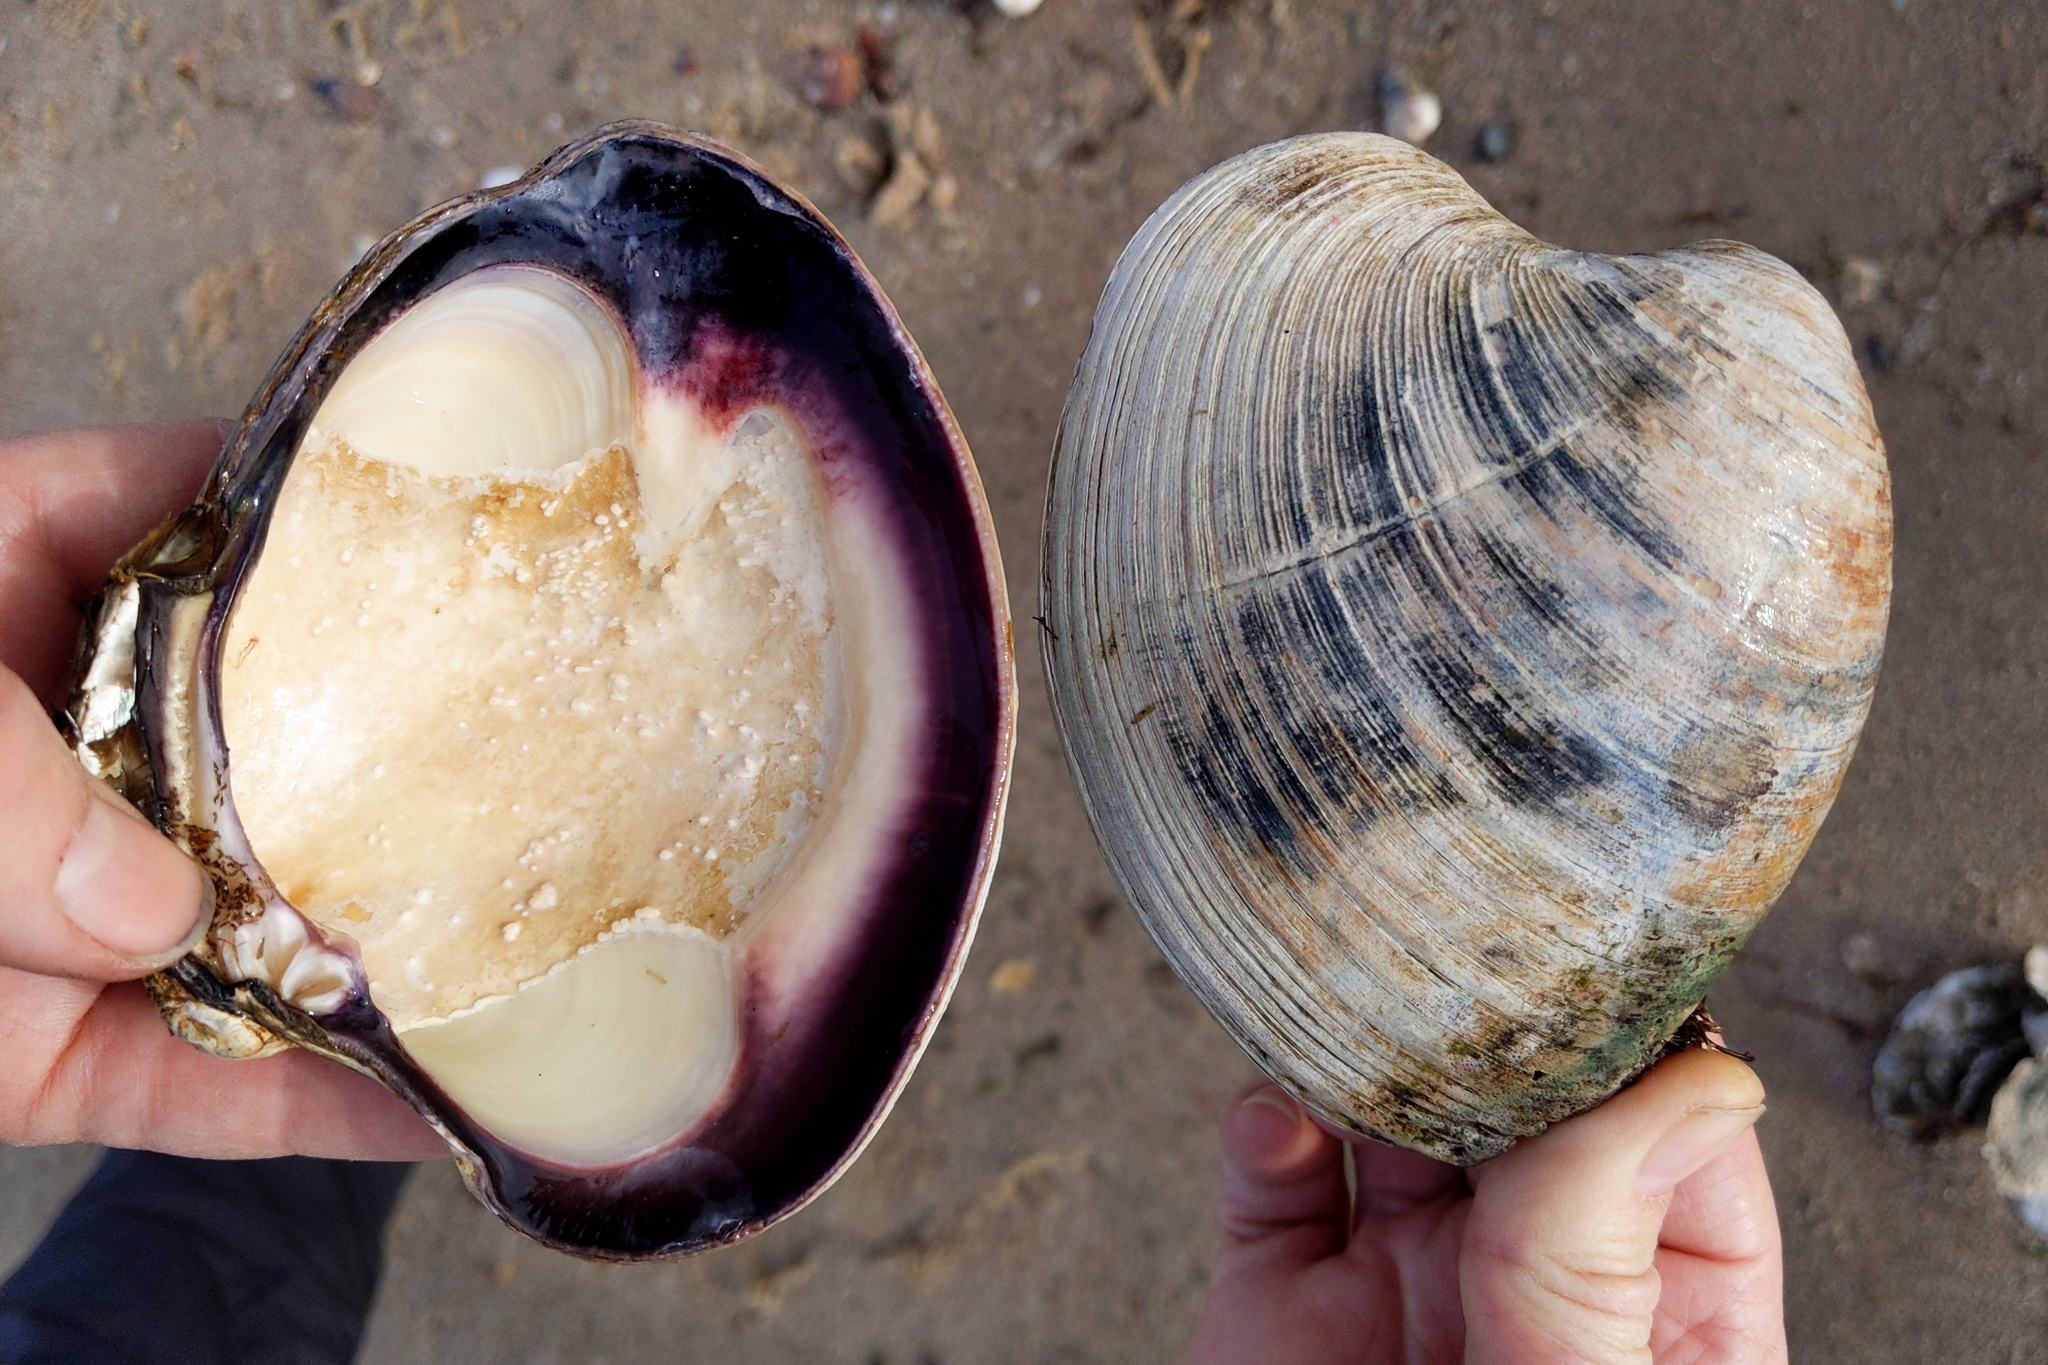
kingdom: Animalia
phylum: Mollusca
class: Bivalvia
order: Venerida
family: Veneridae
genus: Mercenaria
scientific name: Mercenaria mercenaria
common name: American hard-shelled clam
